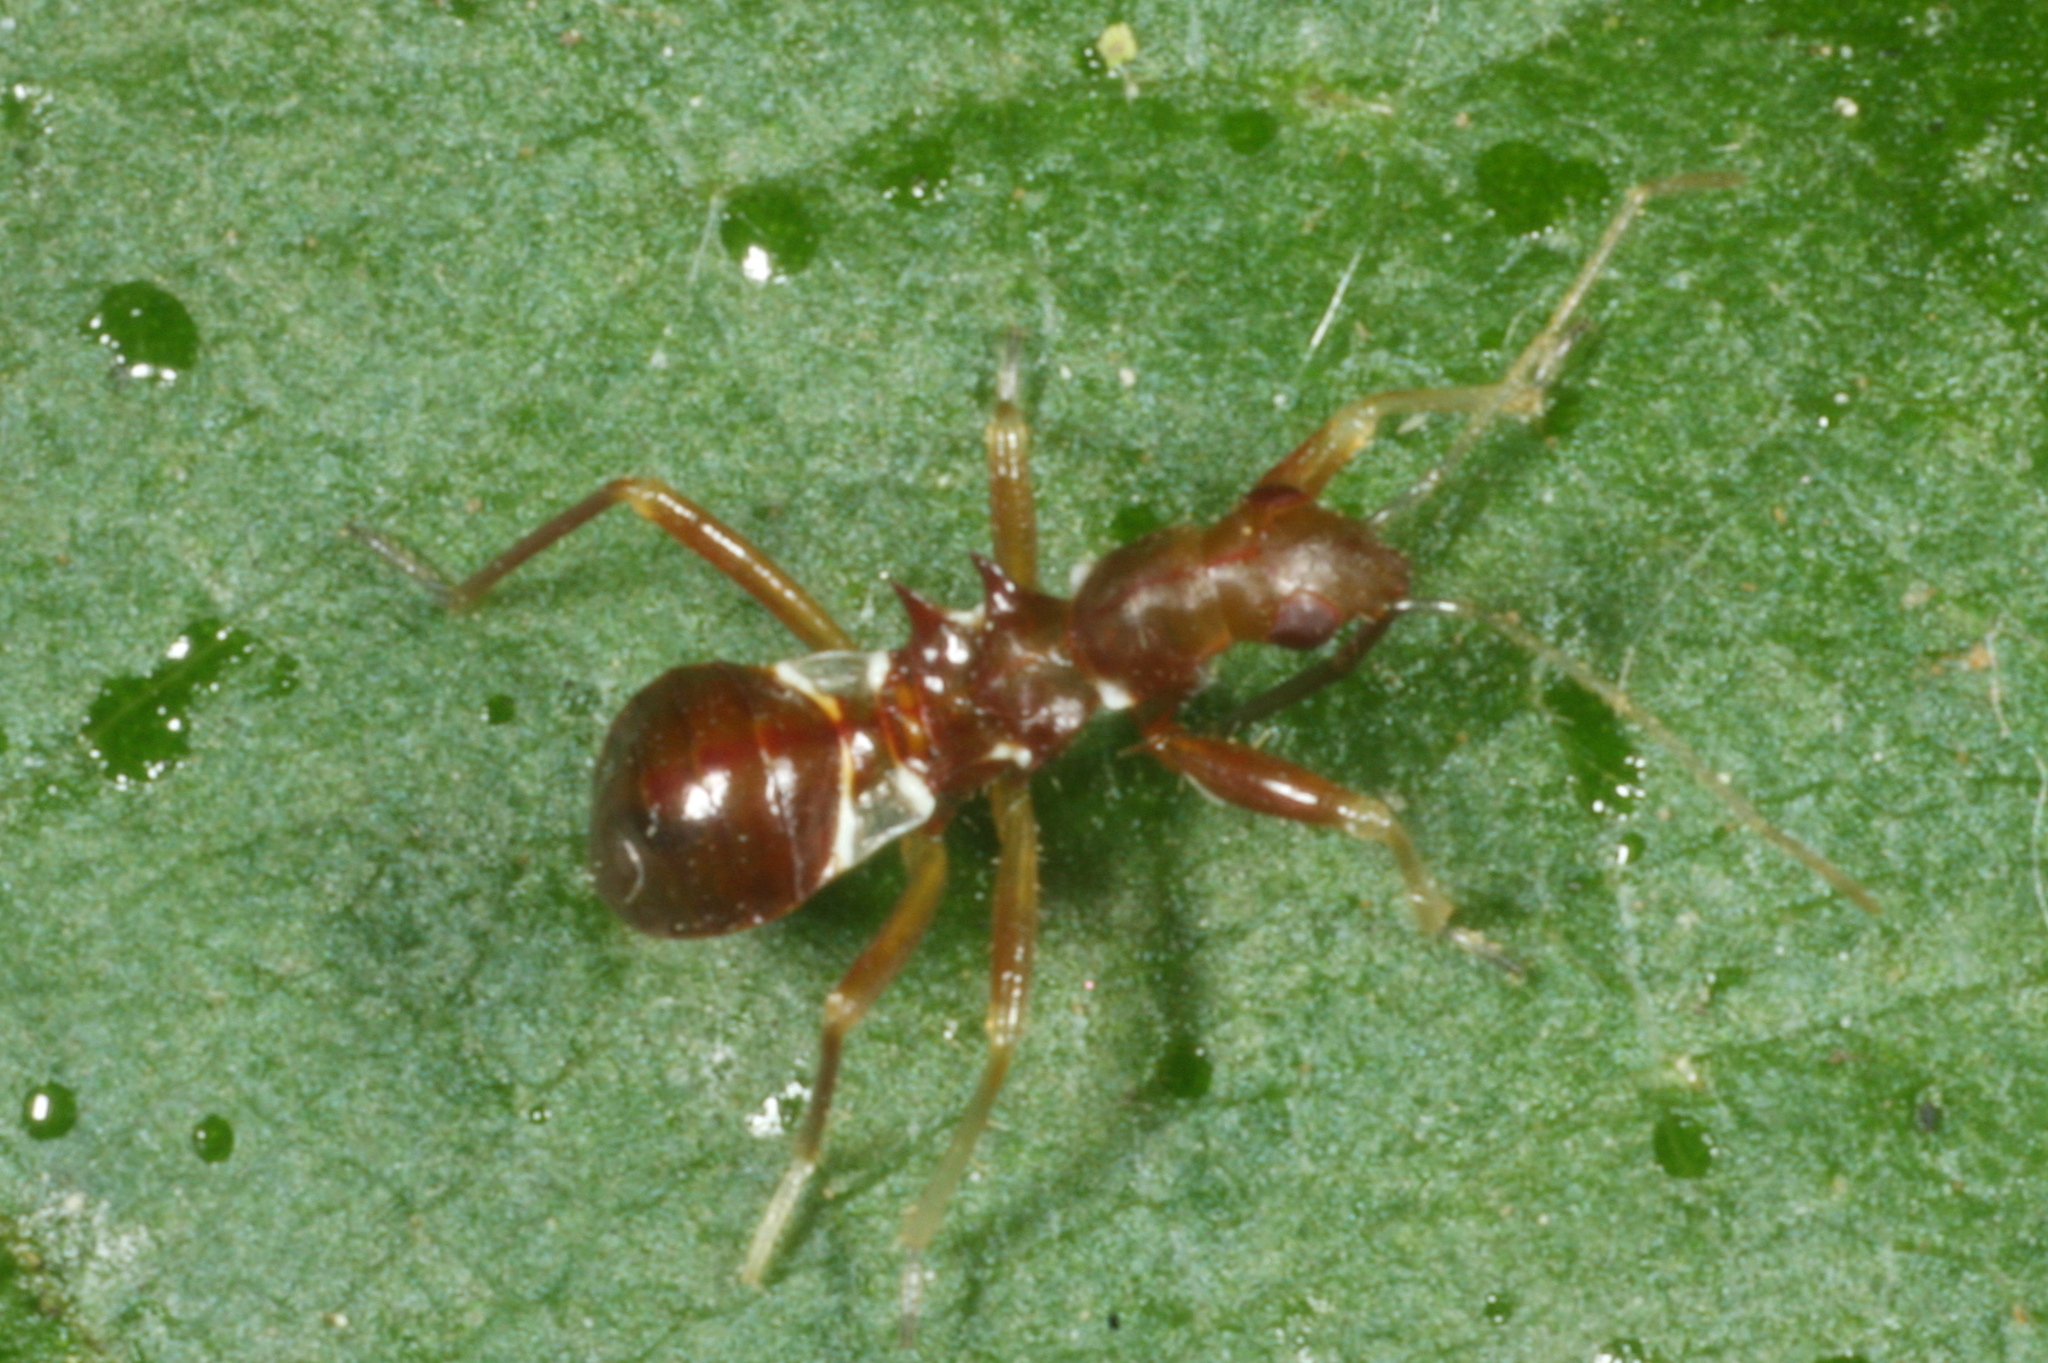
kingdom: Animalia
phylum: Arthropoda
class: Insecta
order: Hemiptera
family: Nabidae
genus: Himacerus
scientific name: Himacerus mirmicoides
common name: Ant damsel bug
